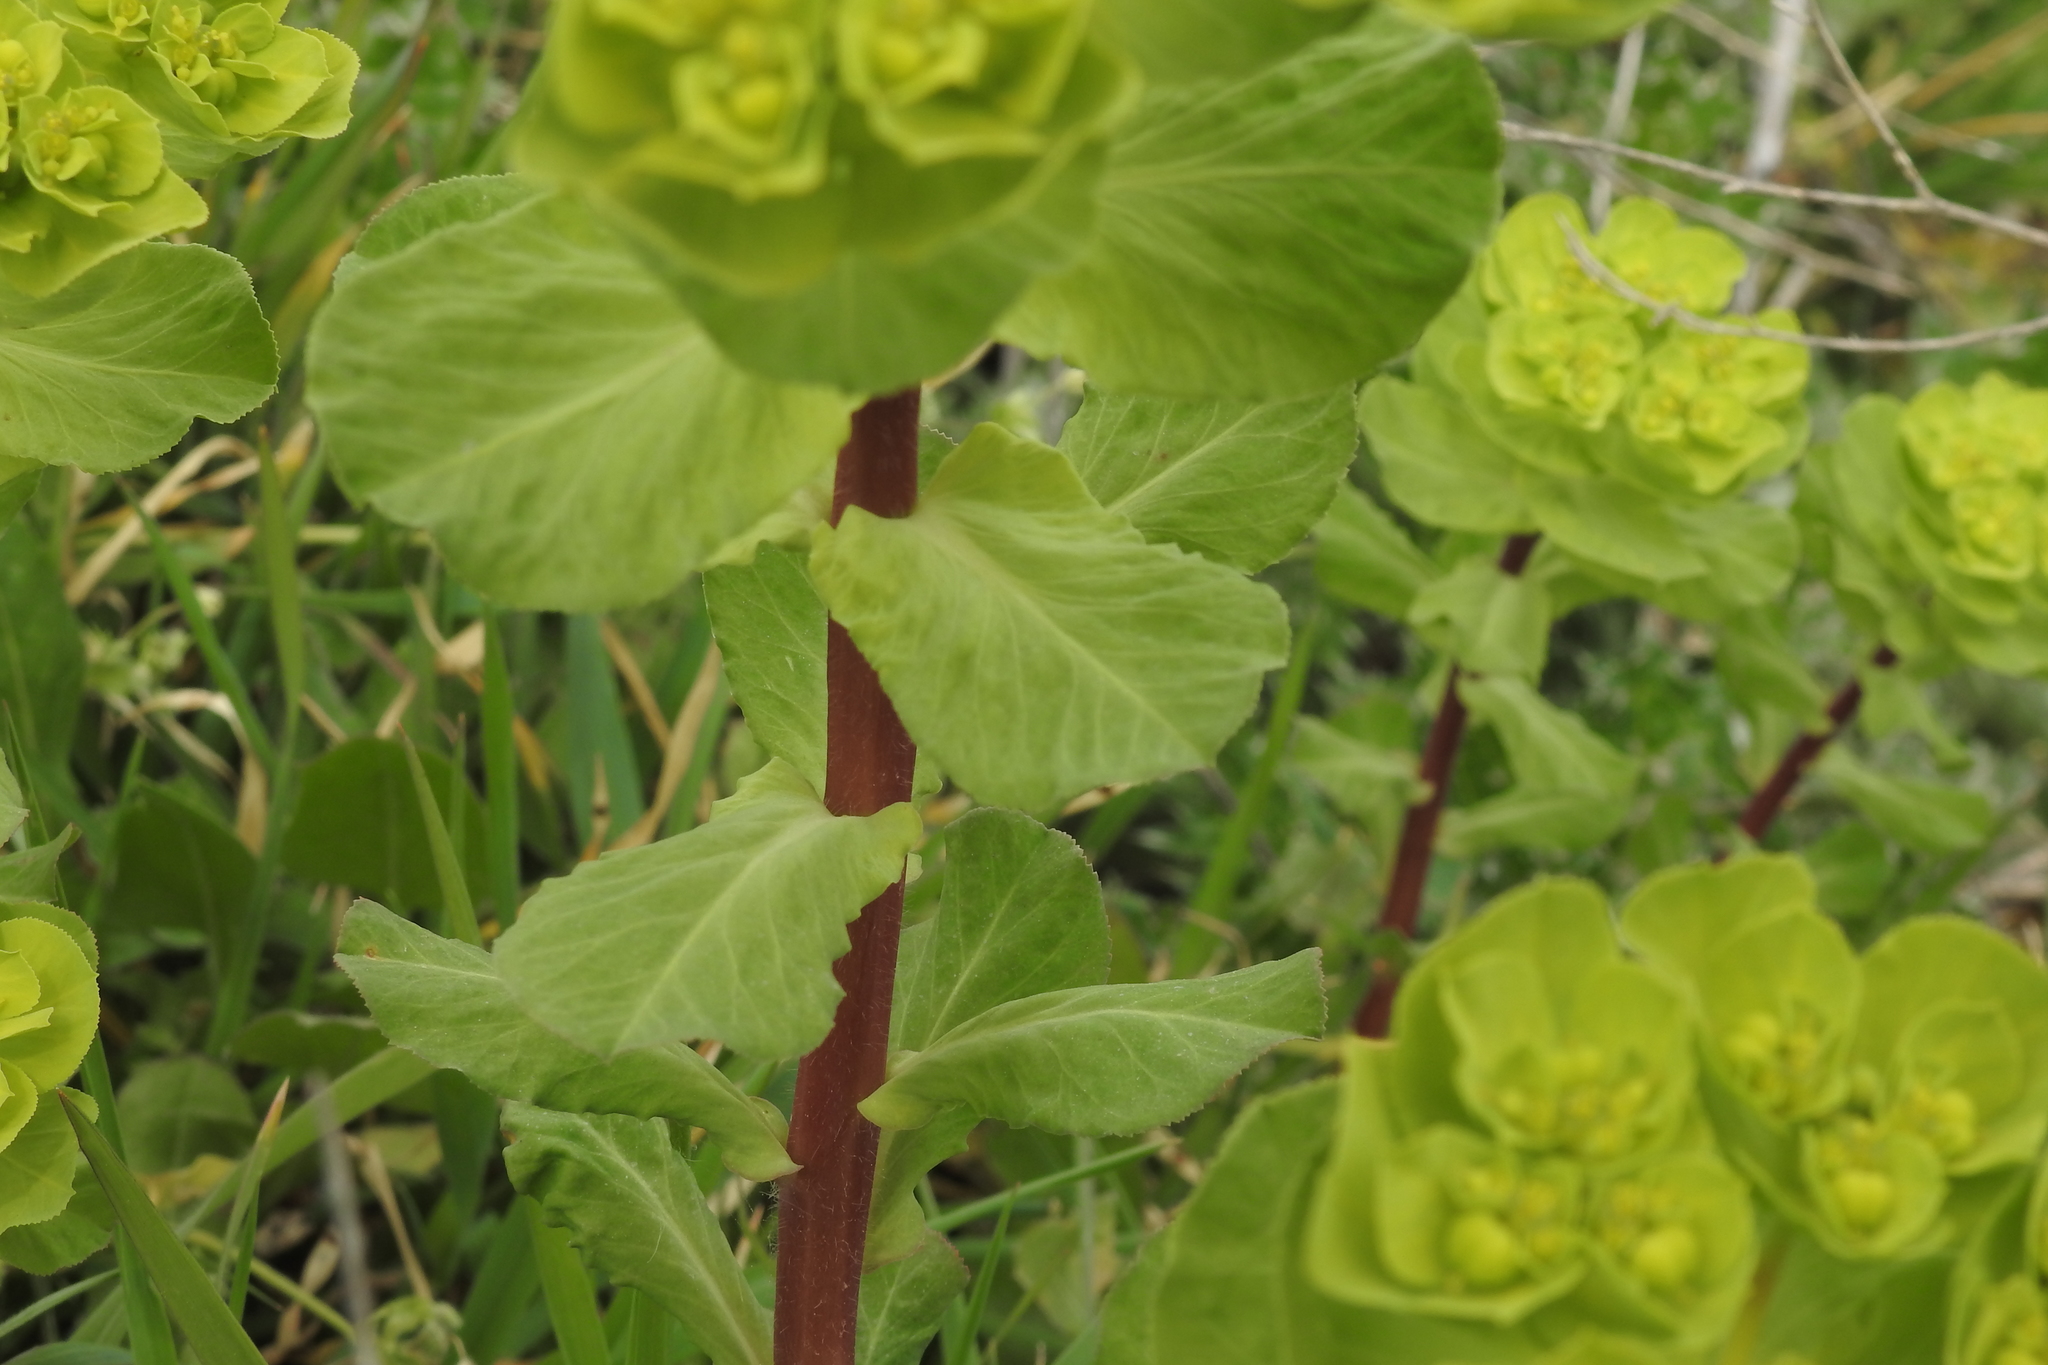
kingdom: Plantae
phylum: Tracheophyta
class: Magnoliopsida
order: Malpighiales
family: Euphorbiaceae
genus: Euphorbia
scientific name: Euphorbia helioscopia
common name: Sun spurge
